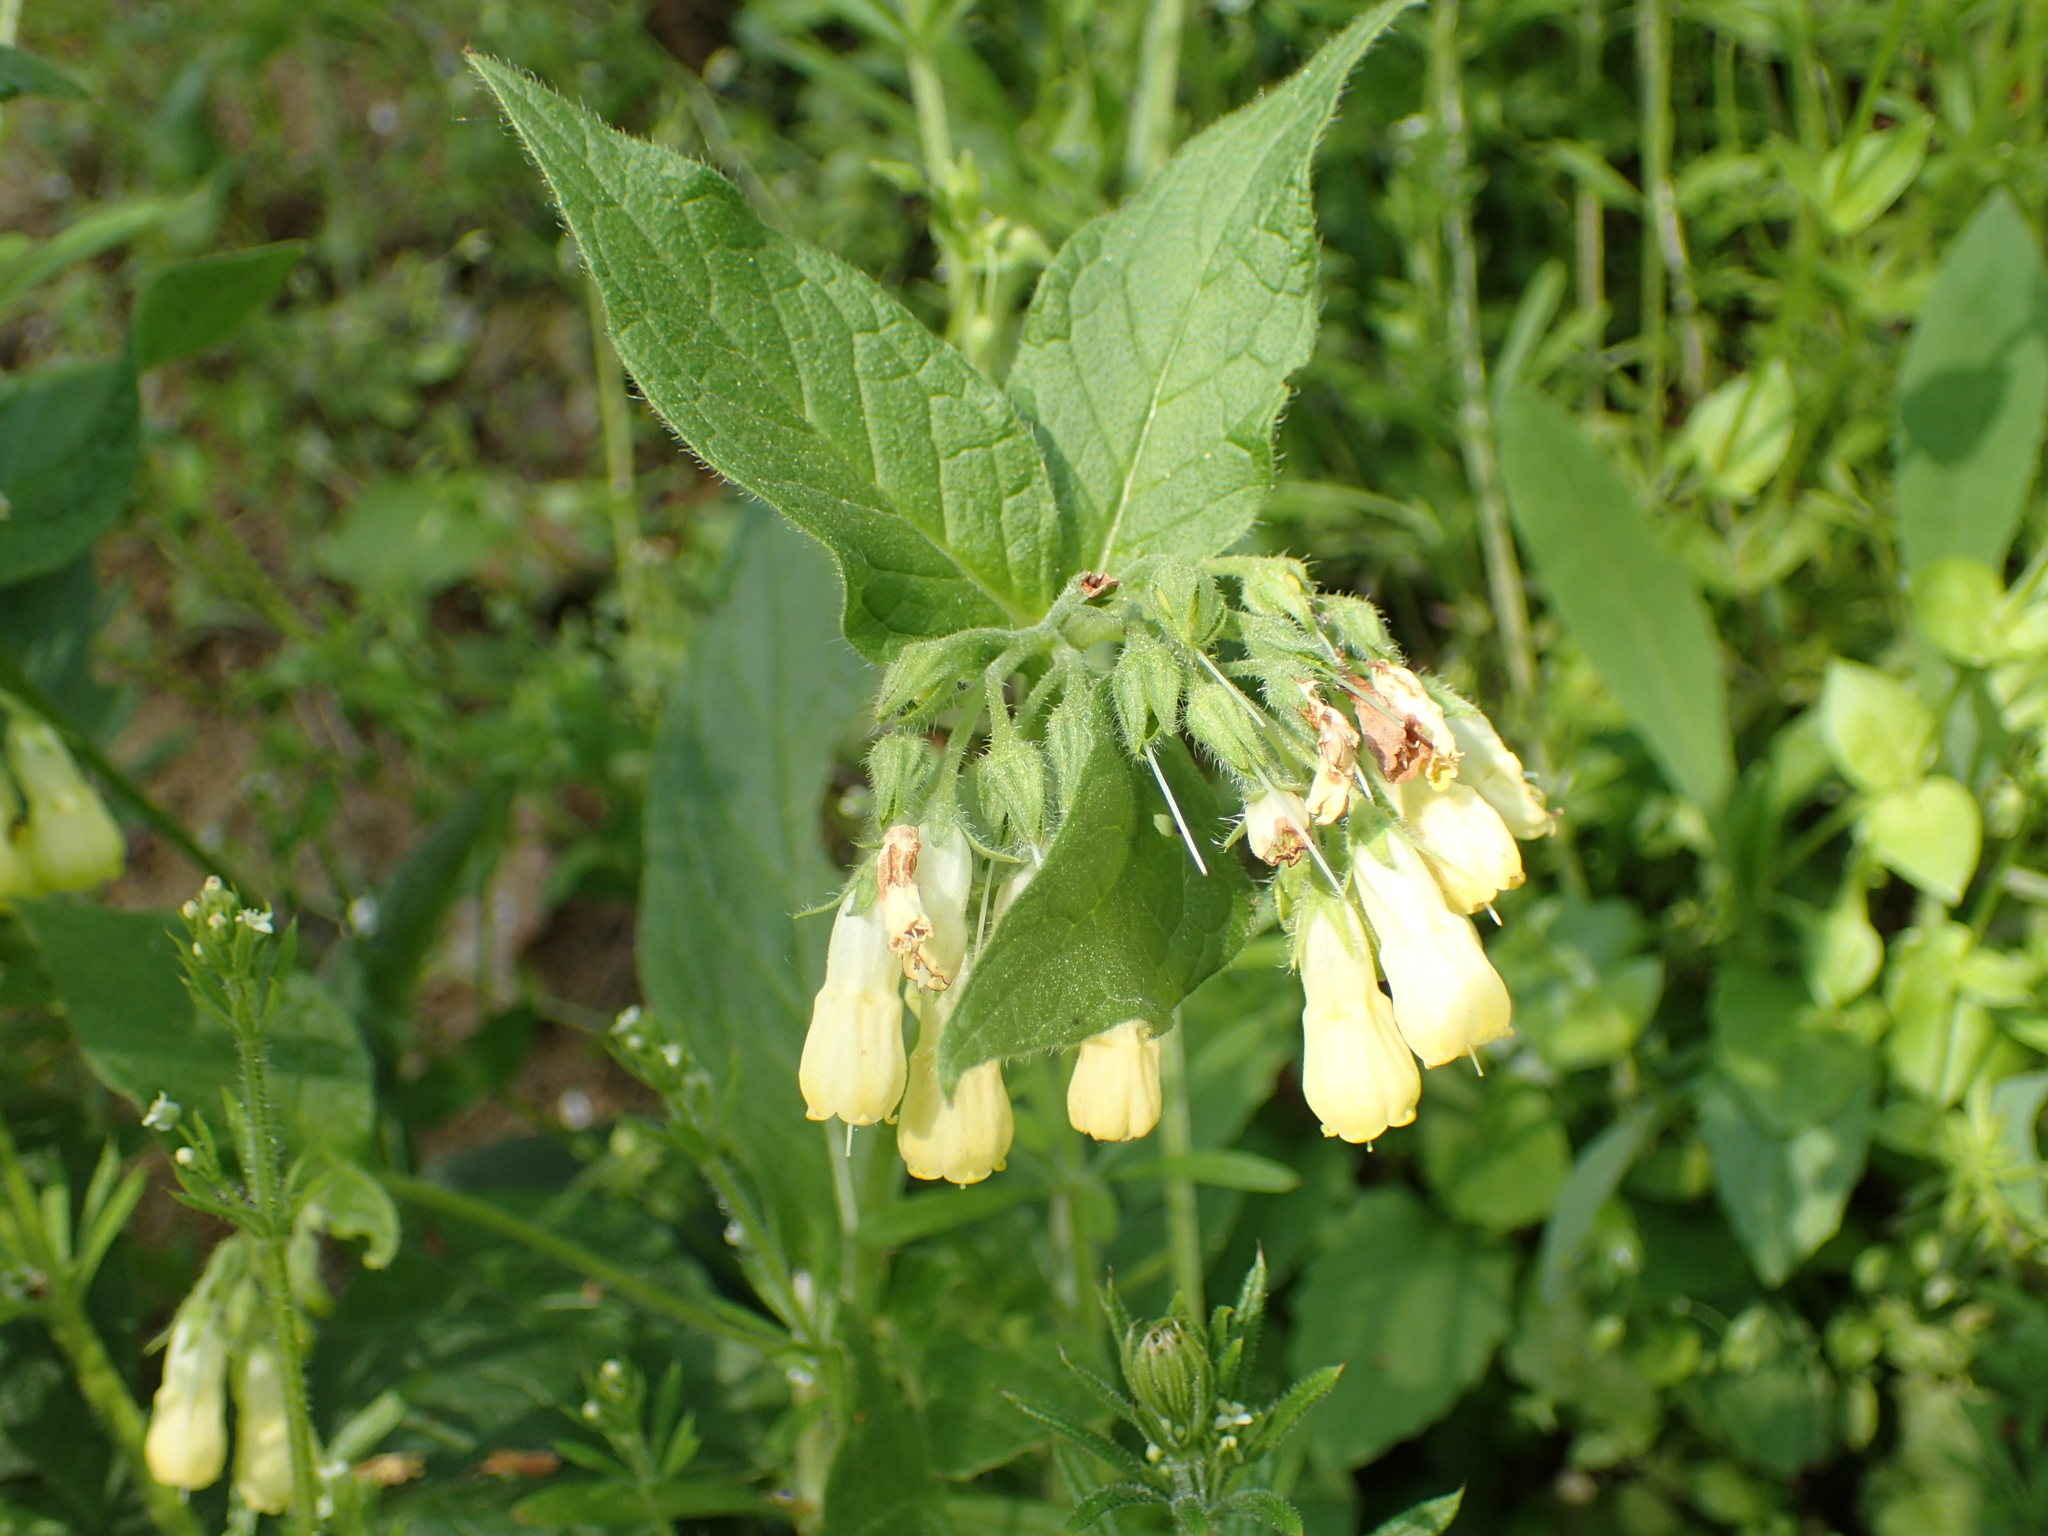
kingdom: Plantae
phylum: Tracheophyta
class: Magnoliopsida
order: Boraginales
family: Boraginaceae
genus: Symphytum
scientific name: Symphytum tuberosum
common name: Tuberous comfrey
